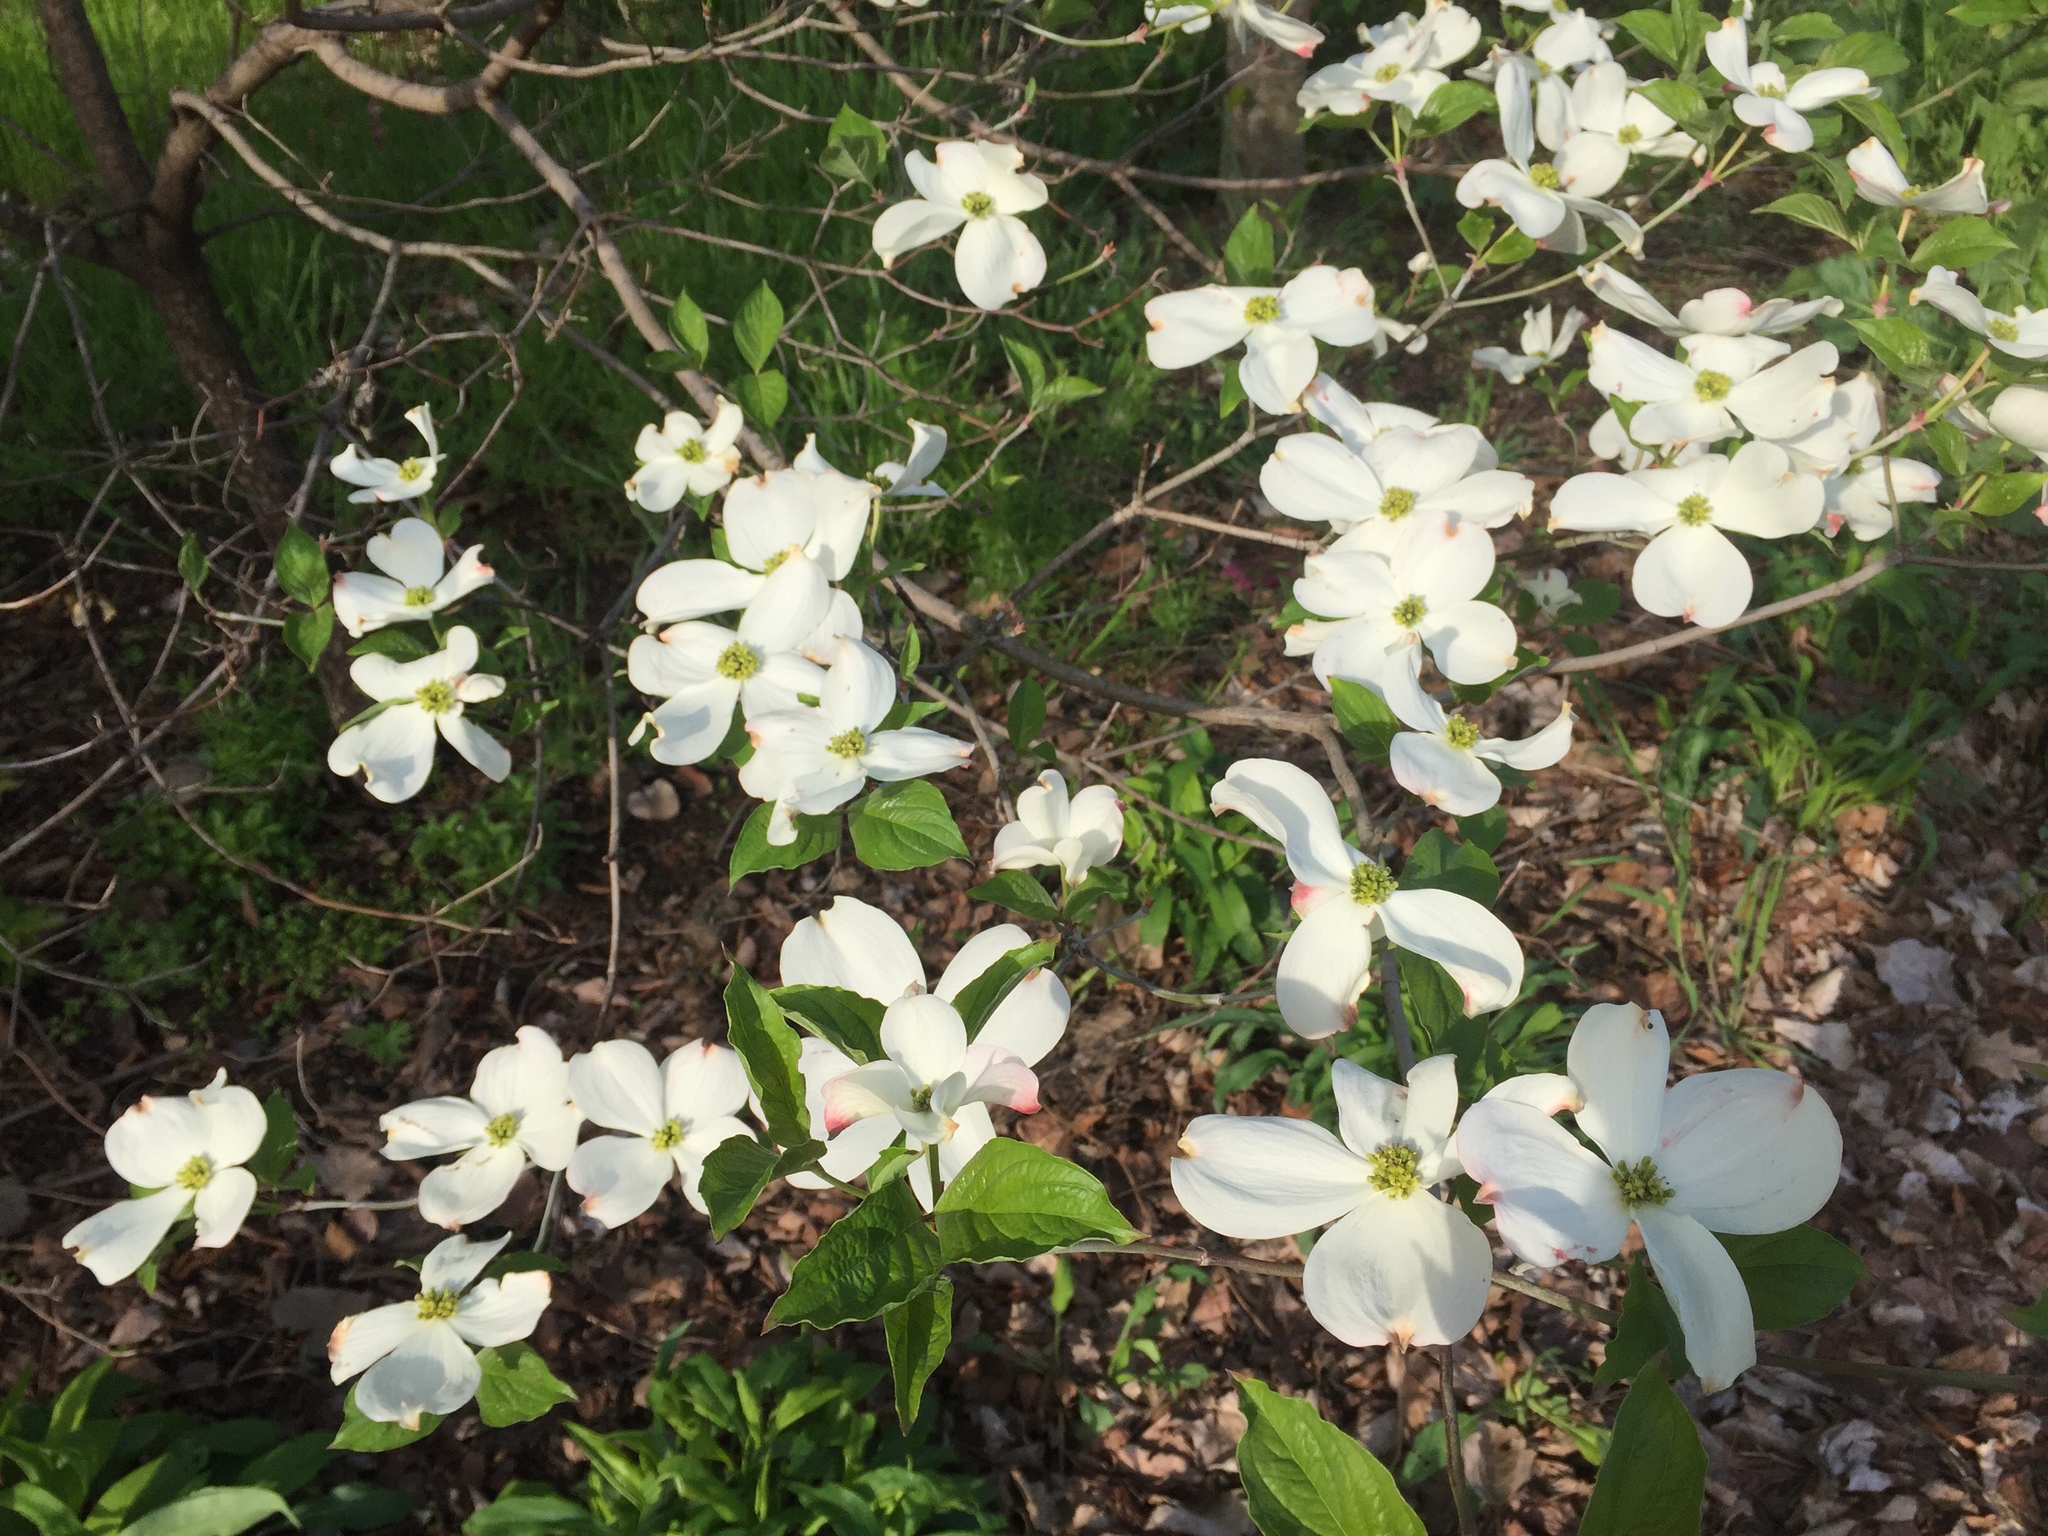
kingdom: Plantae
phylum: Tracheophyta
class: Magnoliopsida
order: Cornales
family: Cornaceae
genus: Cornus
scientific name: Cornus florida
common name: Flowering dogwood
